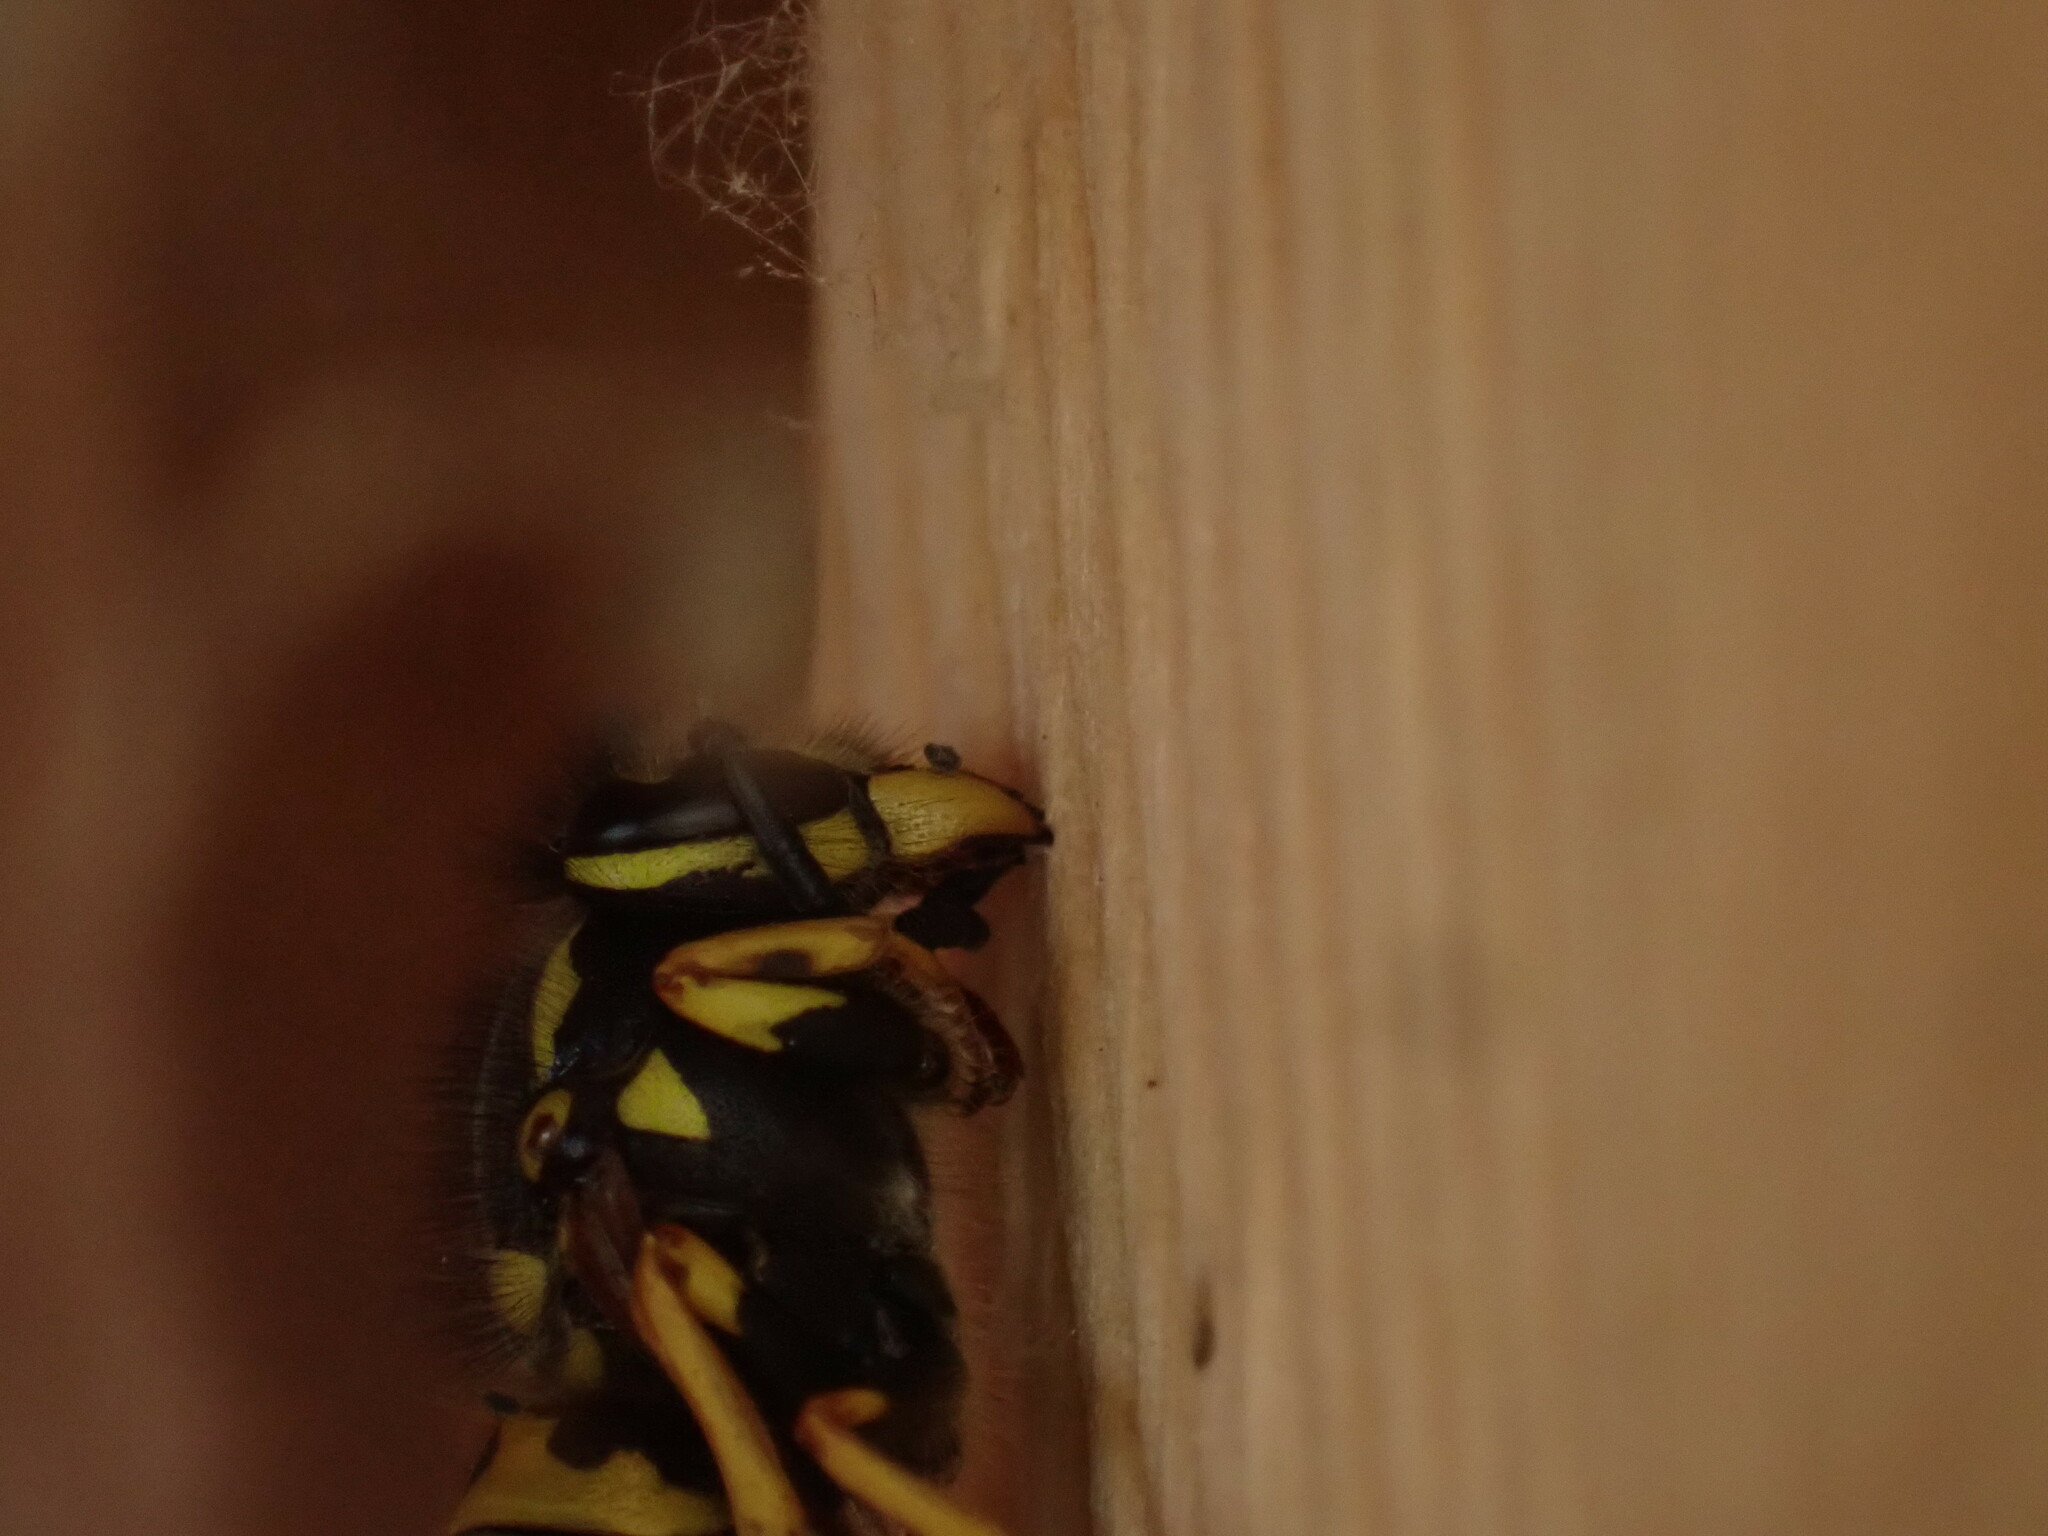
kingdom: Animalia
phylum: Arthropoda
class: Insecta
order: Hymenoptera
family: Vespidae
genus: Vespula
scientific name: Vespula germanica
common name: German wasp
